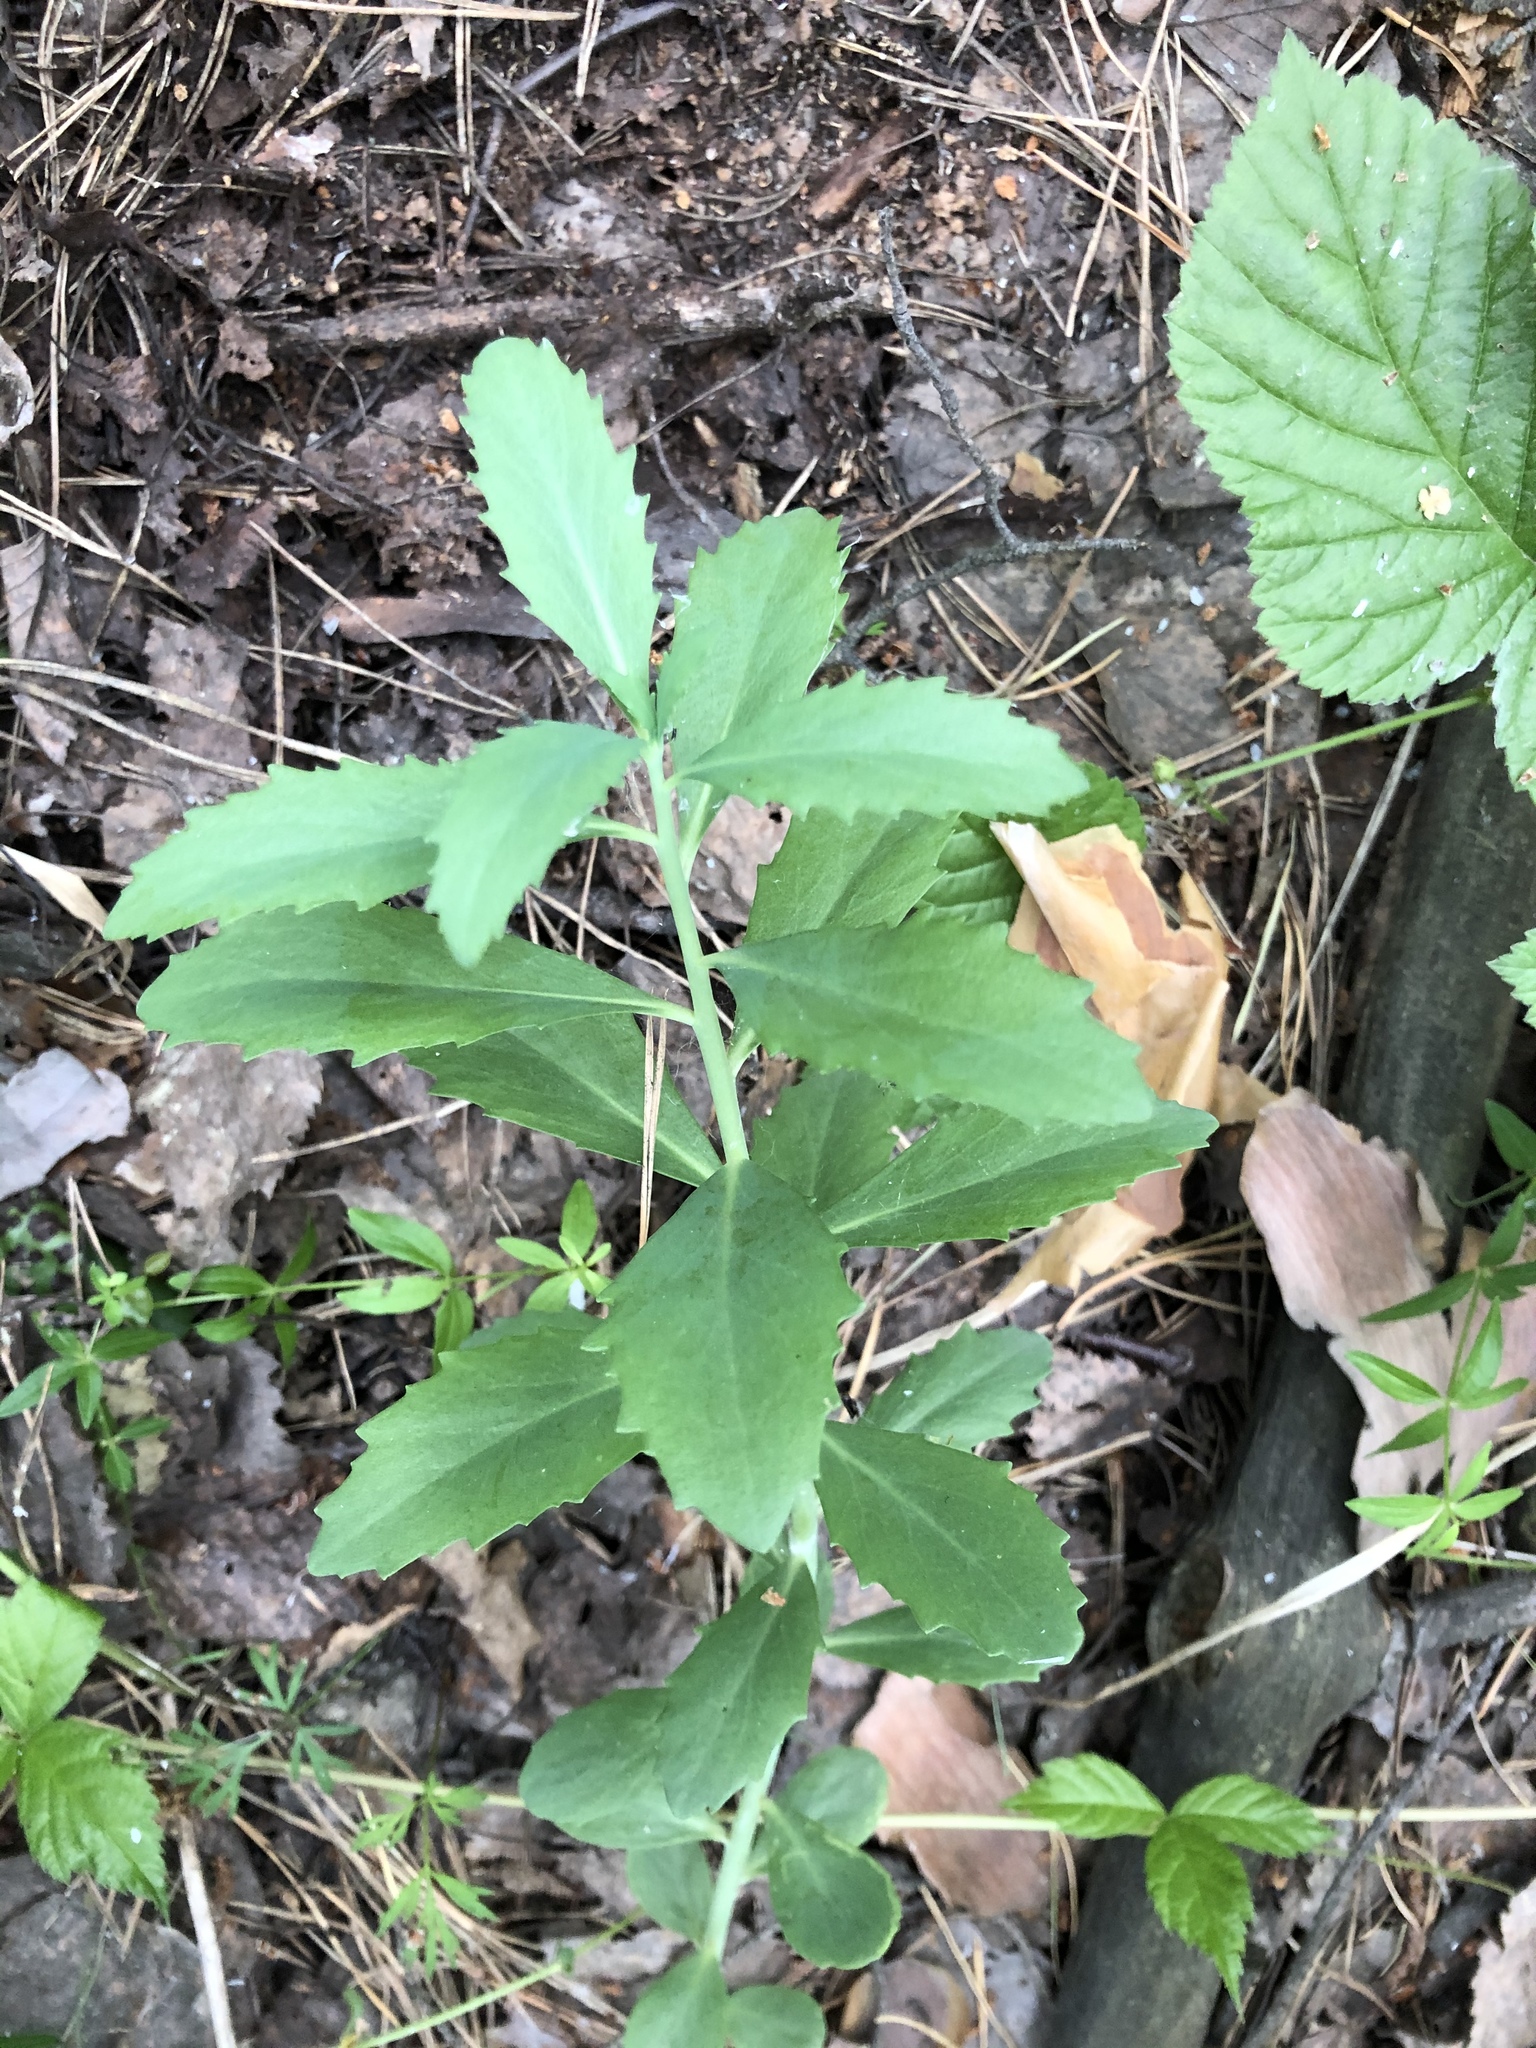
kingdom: Plantae
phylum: Tracheophyta
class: Magnoliopsida
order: Saxifragales
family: Crassulaceae
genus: Hylotelephium
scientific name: Hylotelephium telephium
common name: Live-forever
